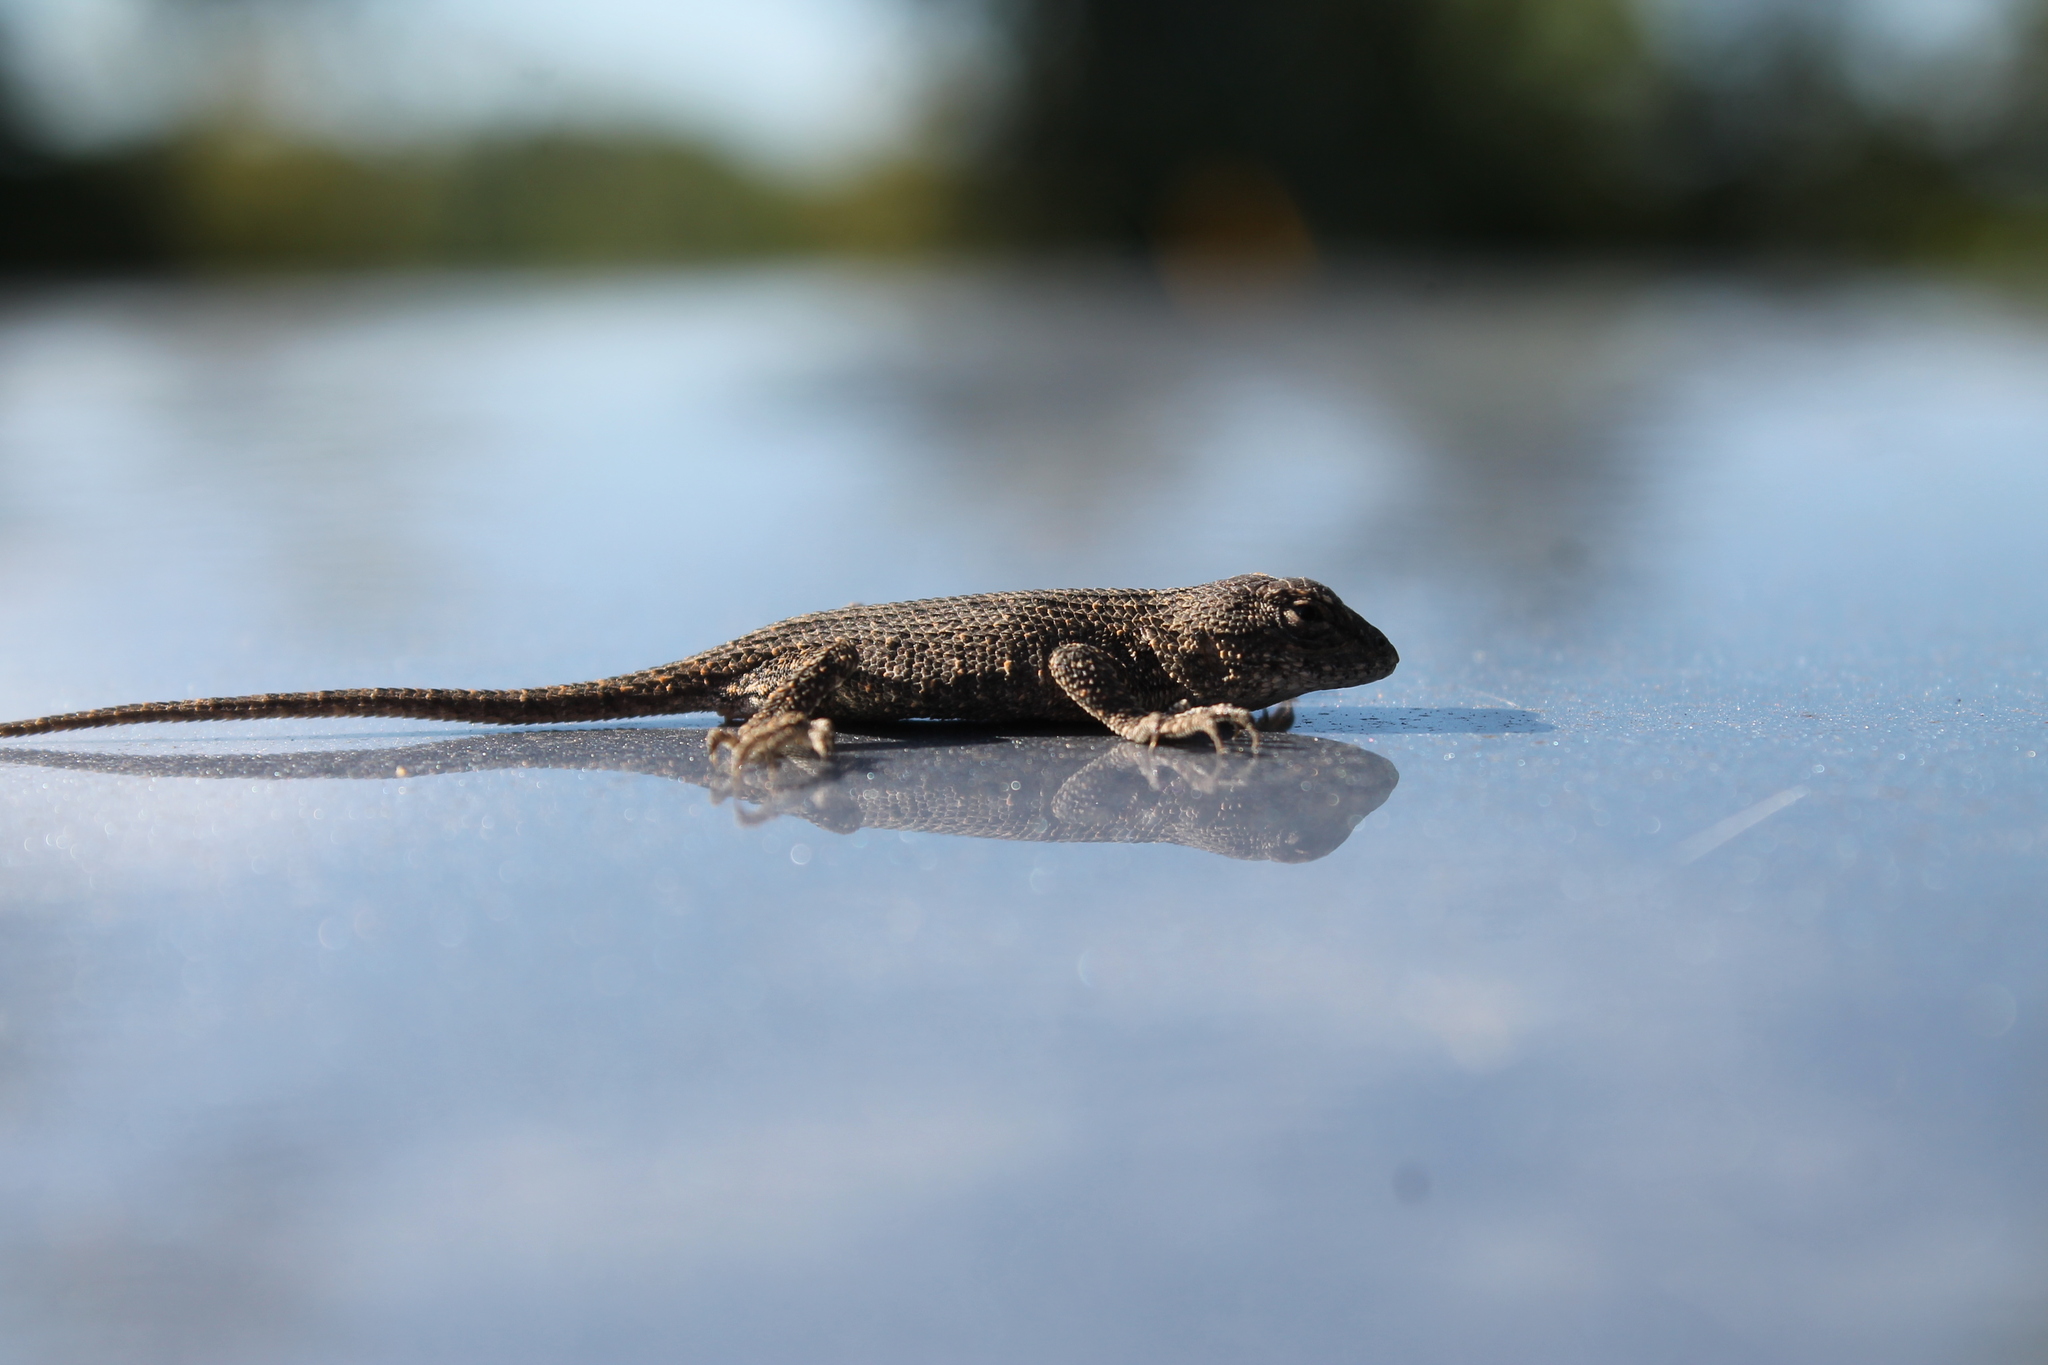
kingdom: Animalia
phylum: Chordata
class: Squamata
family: Phrynosomatidae
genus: Sceloporus
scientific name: Sceloporus undulatus
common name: Eastern fence lizard
